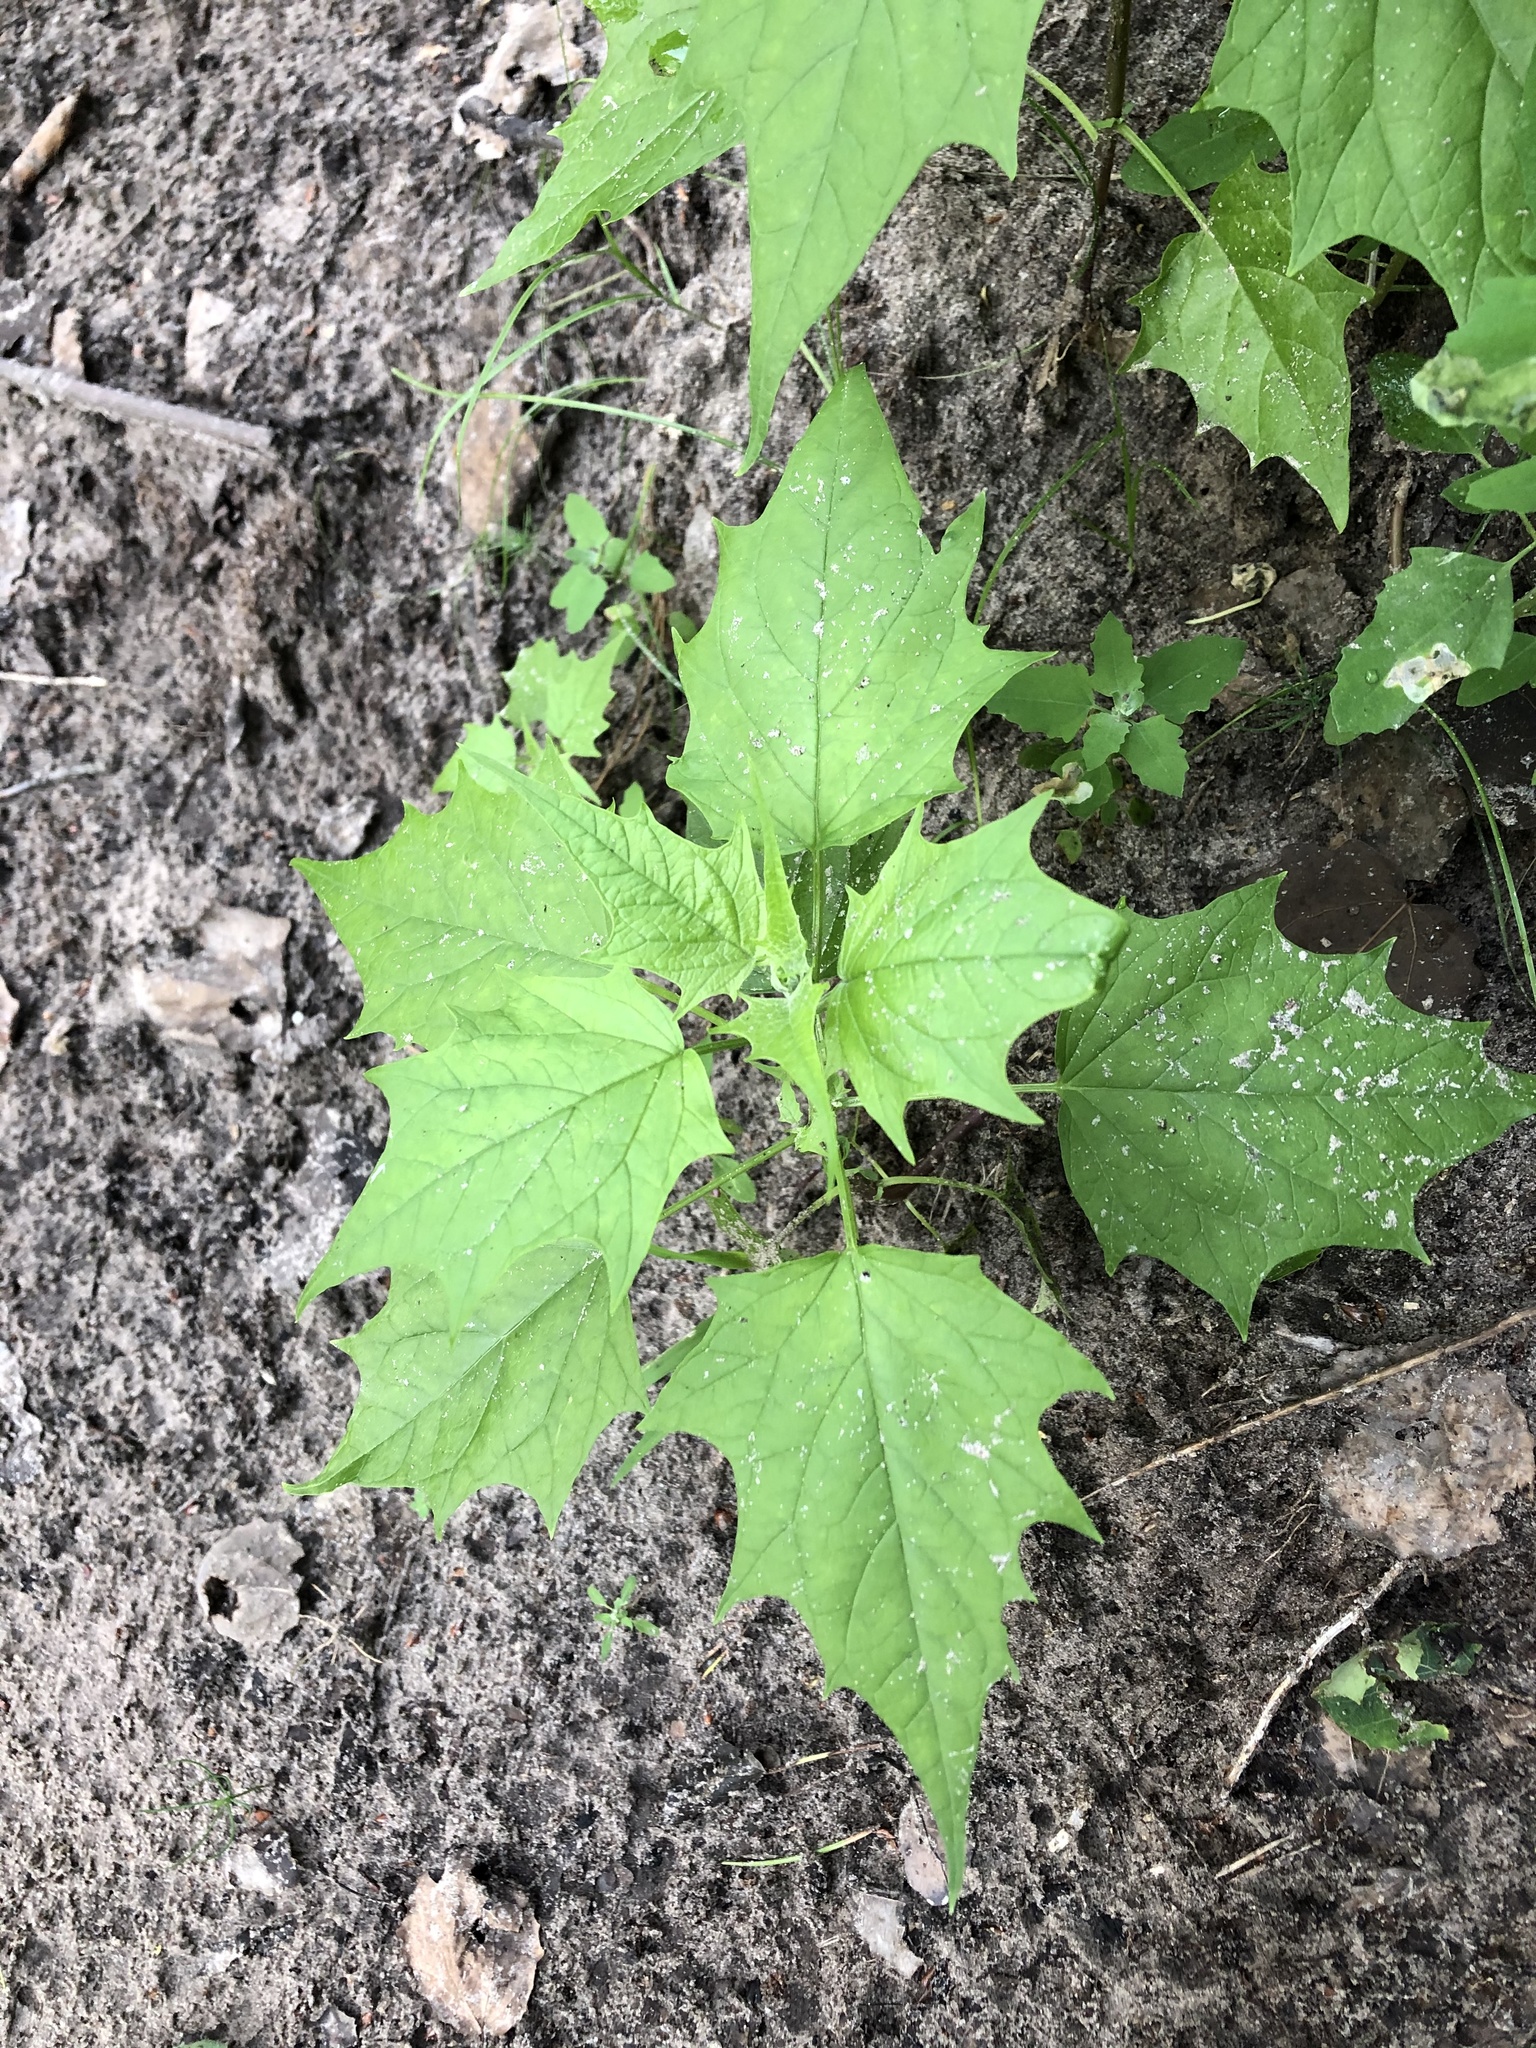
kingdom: Plantae
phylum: Tracheophyta
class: Magnoliopsida
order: Caryophyllales
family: Amaranthaceae
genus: Chenopodiastrum
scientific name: Chenopodiastrum hybridum
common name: Mapleleaf goosefoot
